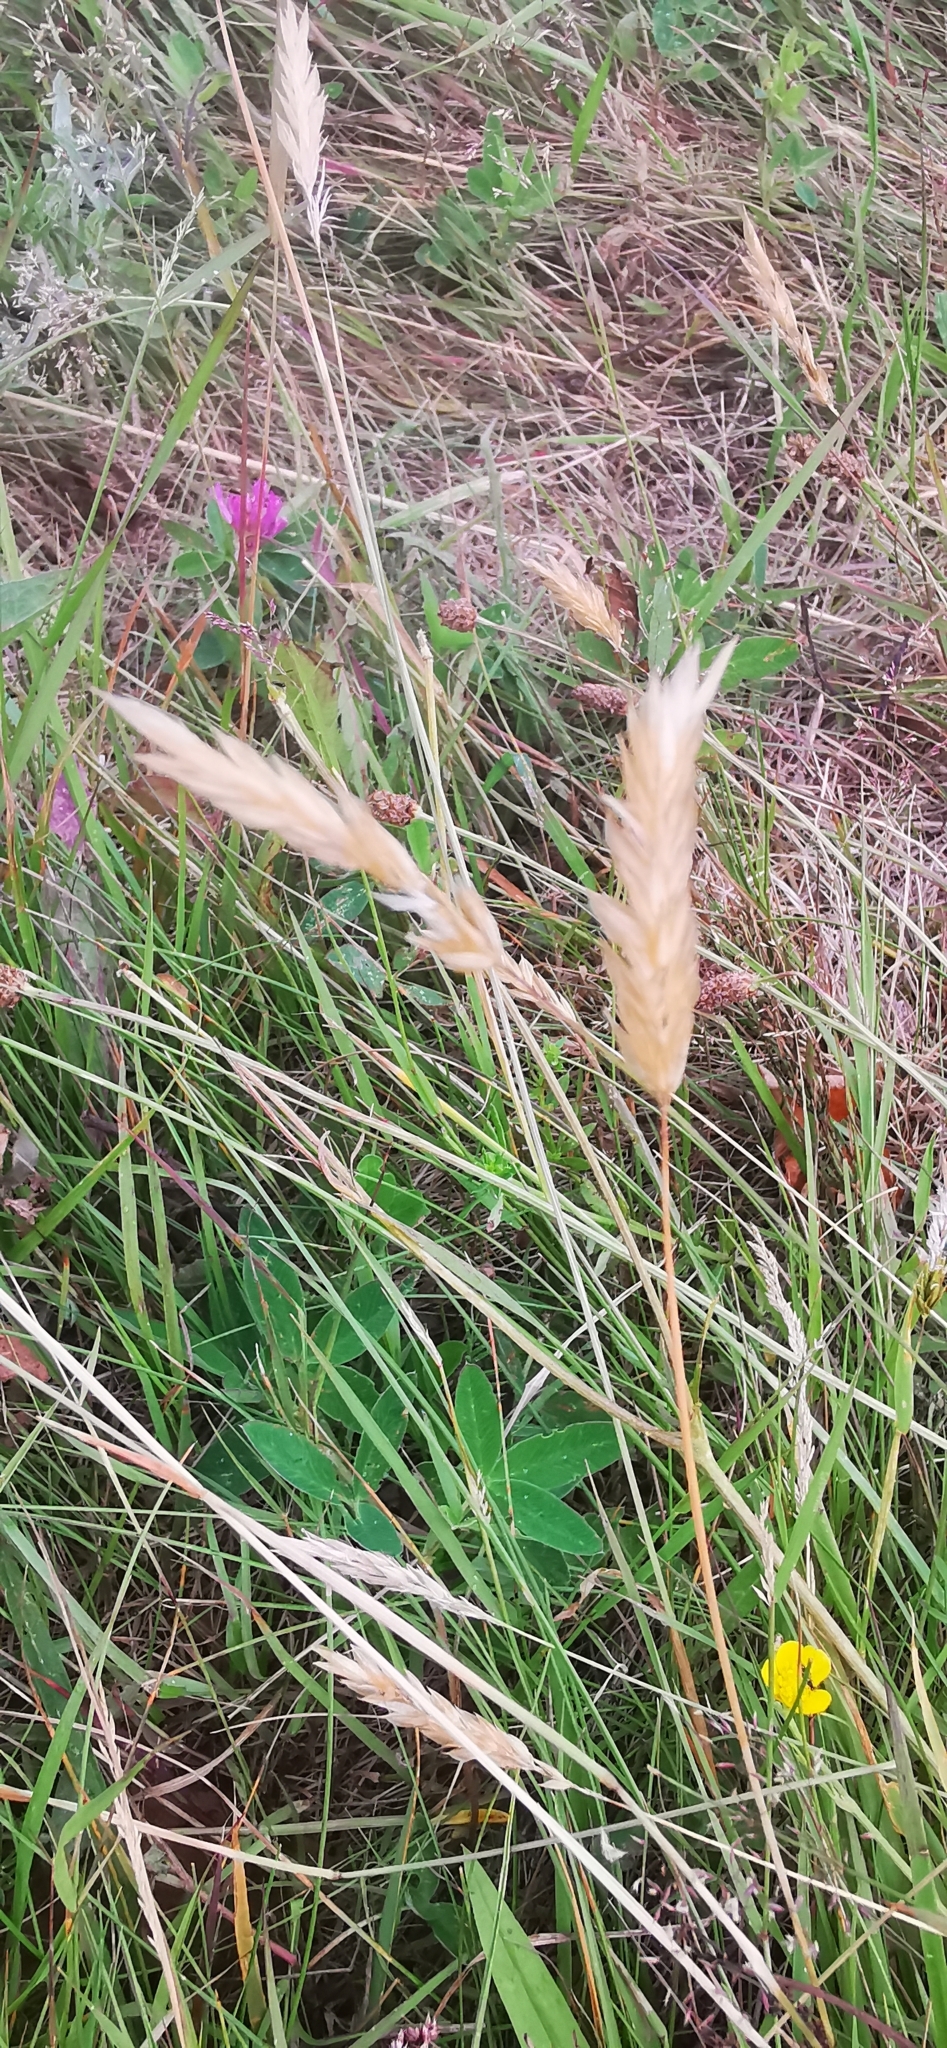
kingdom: Plantae
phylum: Tracheophyta
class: Liliopsida
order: Poales
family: Poaceae
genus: Anthoxanthum
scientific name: Anthoxanthum odoratum
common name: Sweet vernalgrass
